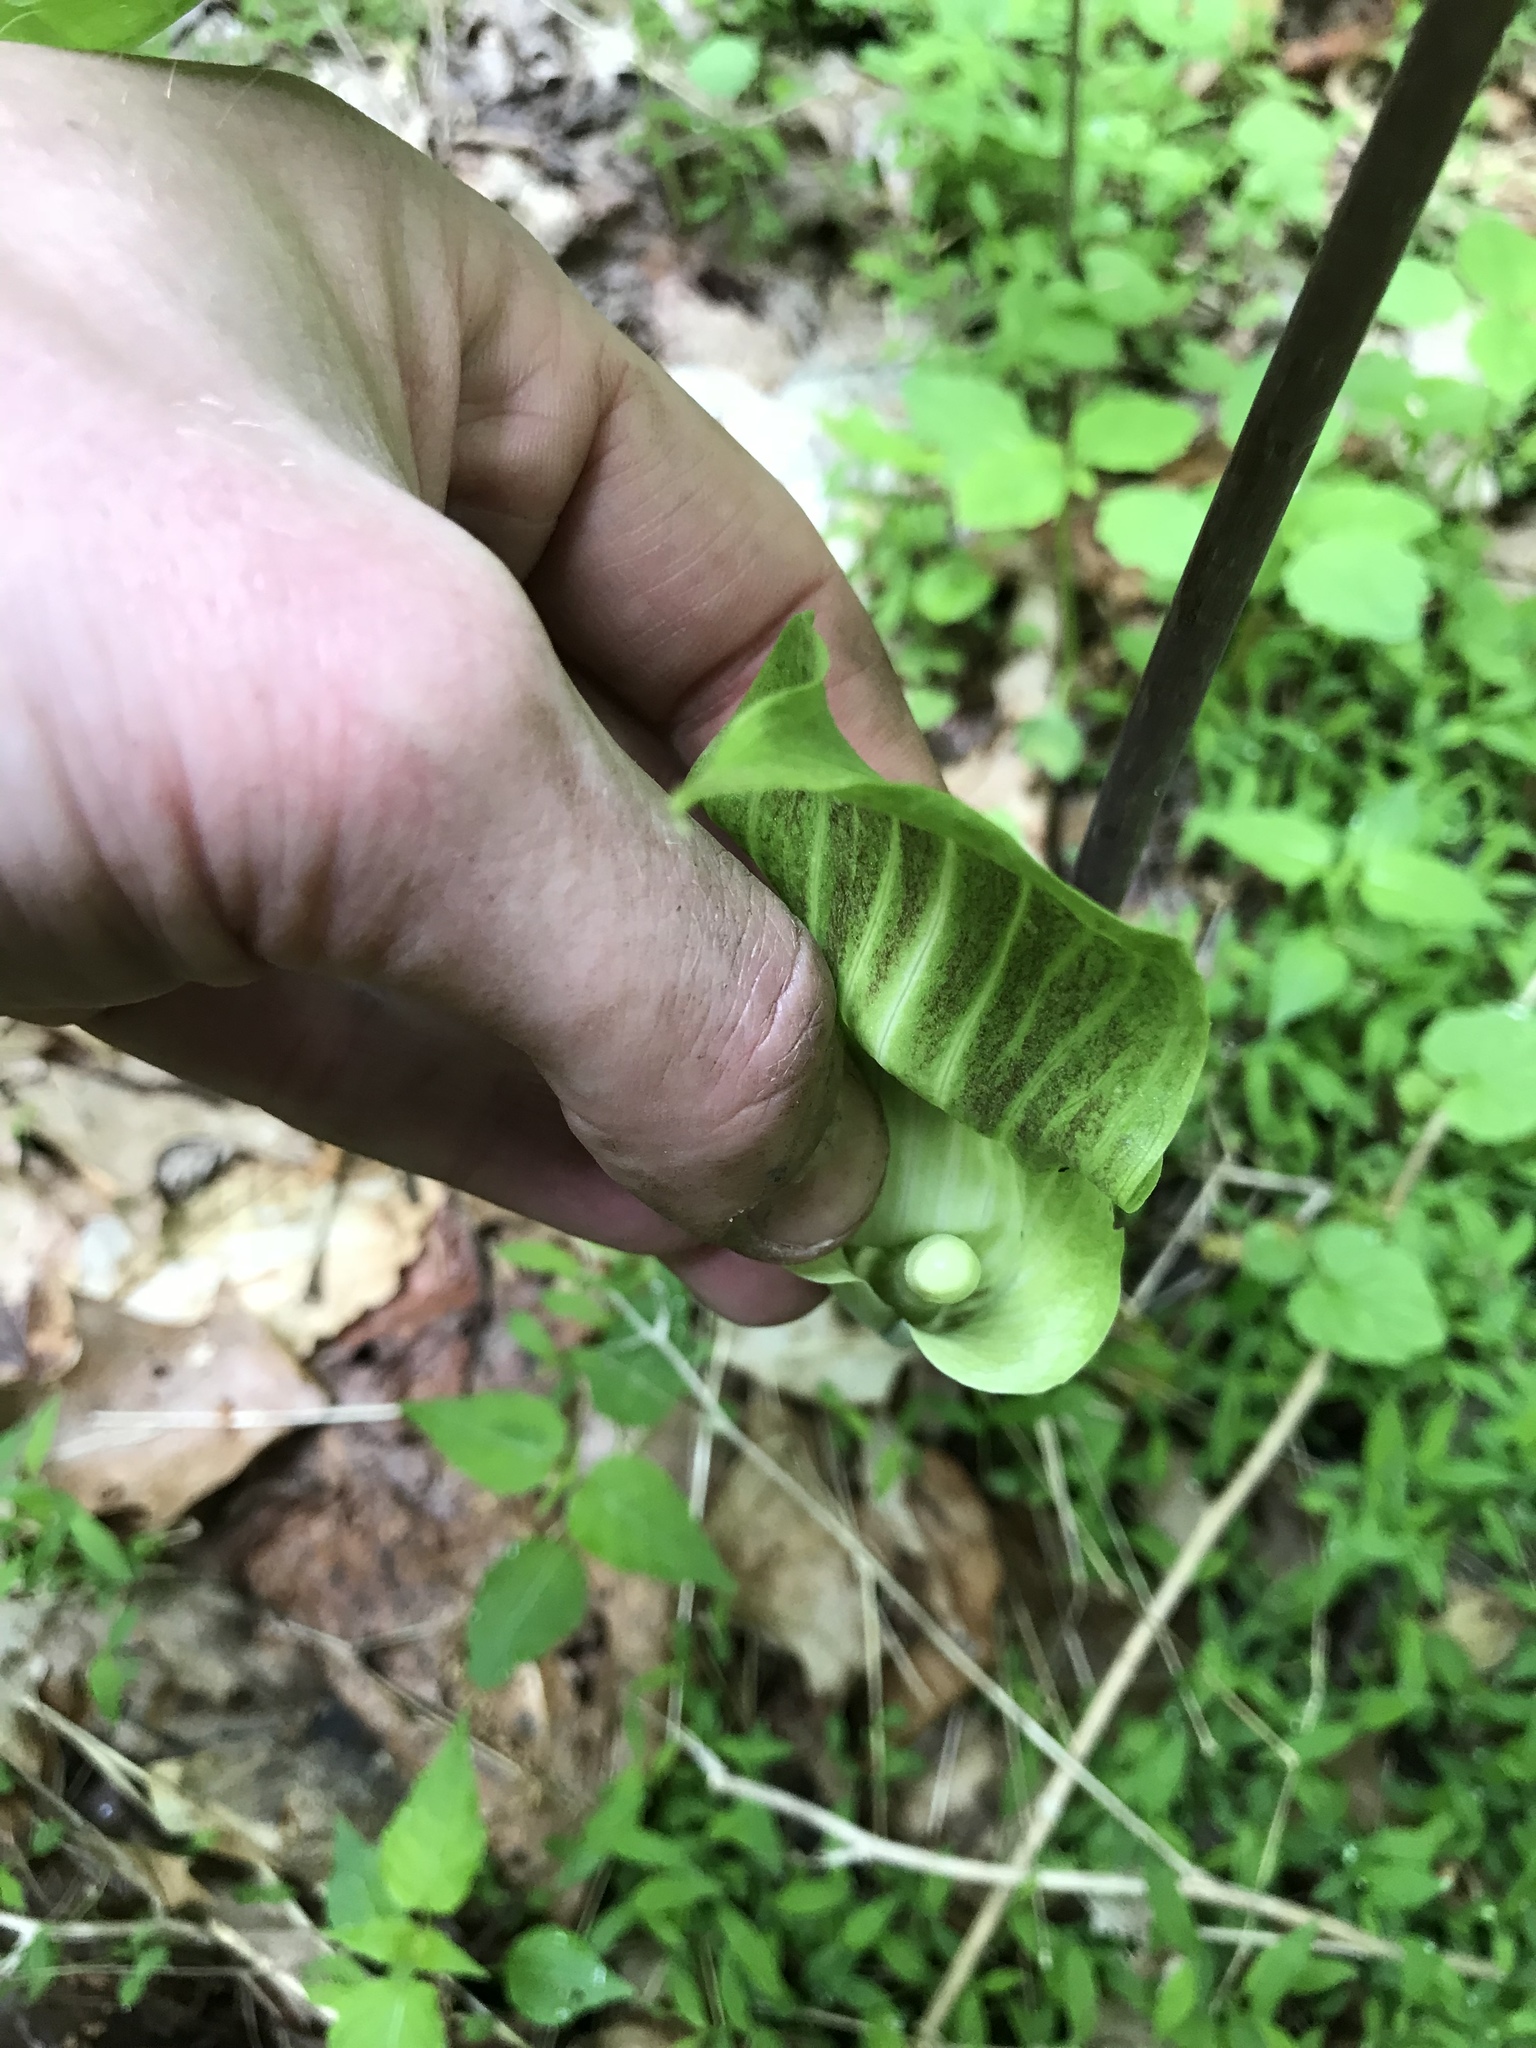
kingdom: Plantae
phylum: Tracheophyta
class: Liliopsida
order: Alismatales
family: Araceae
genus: Arisaema
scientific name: Arisaema triphyllum
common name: Jack-in-the-pulpit
